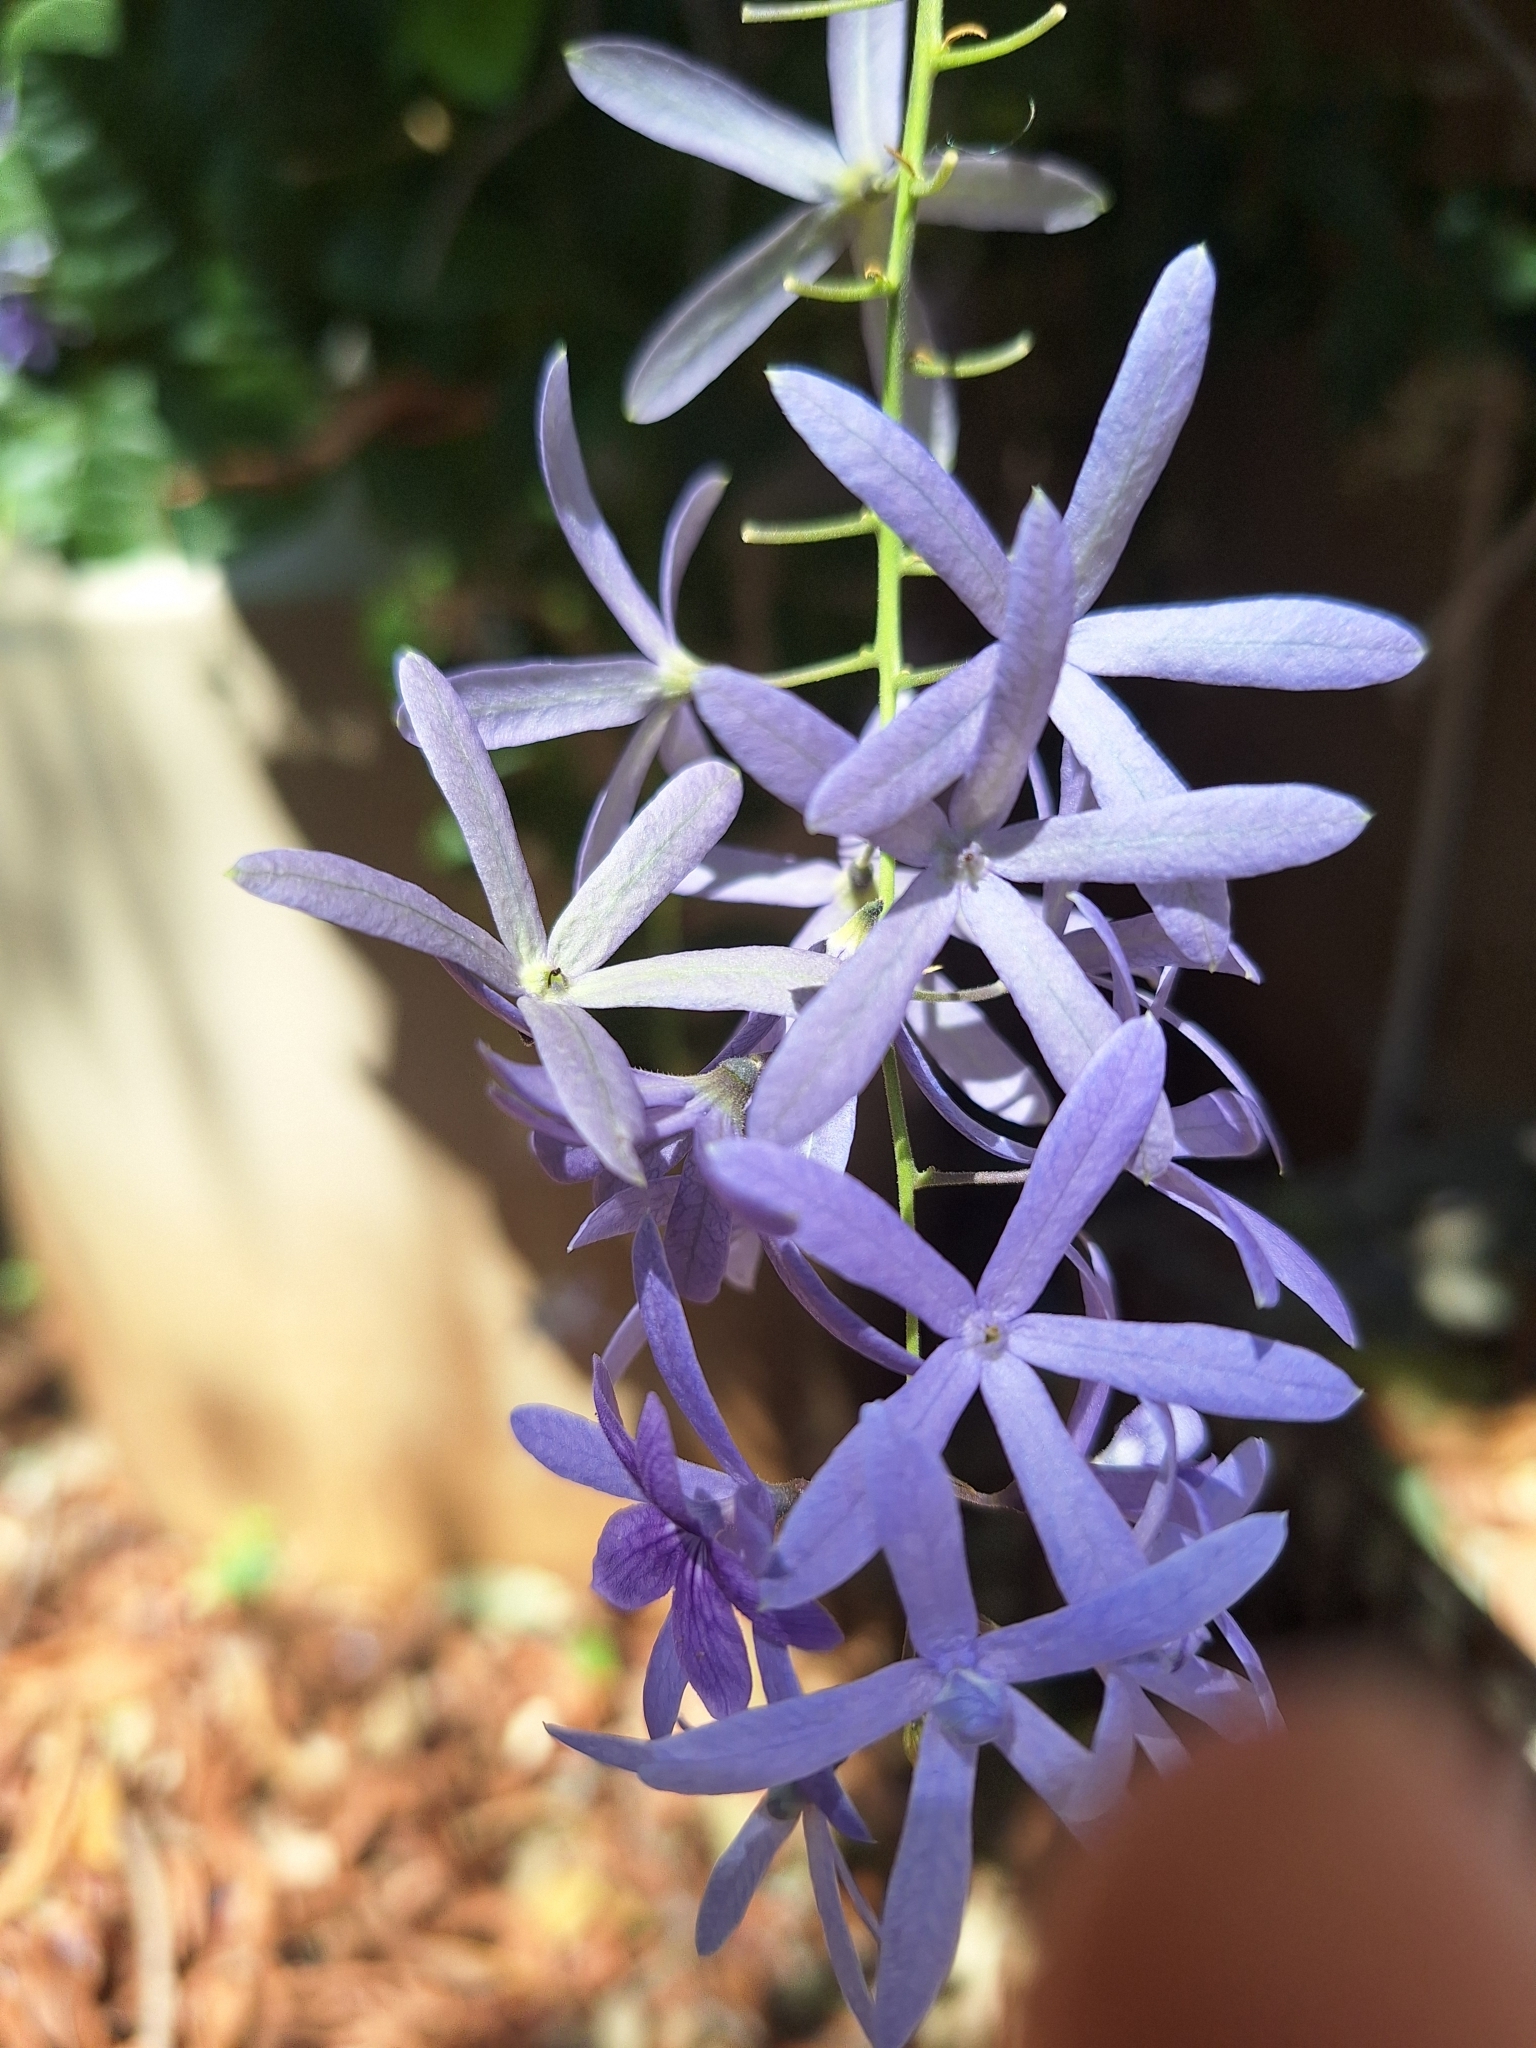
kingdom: Plantae
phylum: Tracheophyta
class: Magnoliopsida
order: Lamiales
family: Verbenaceae
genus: Petrea
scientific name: Petrea volubilis
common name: Queen's-wreath
